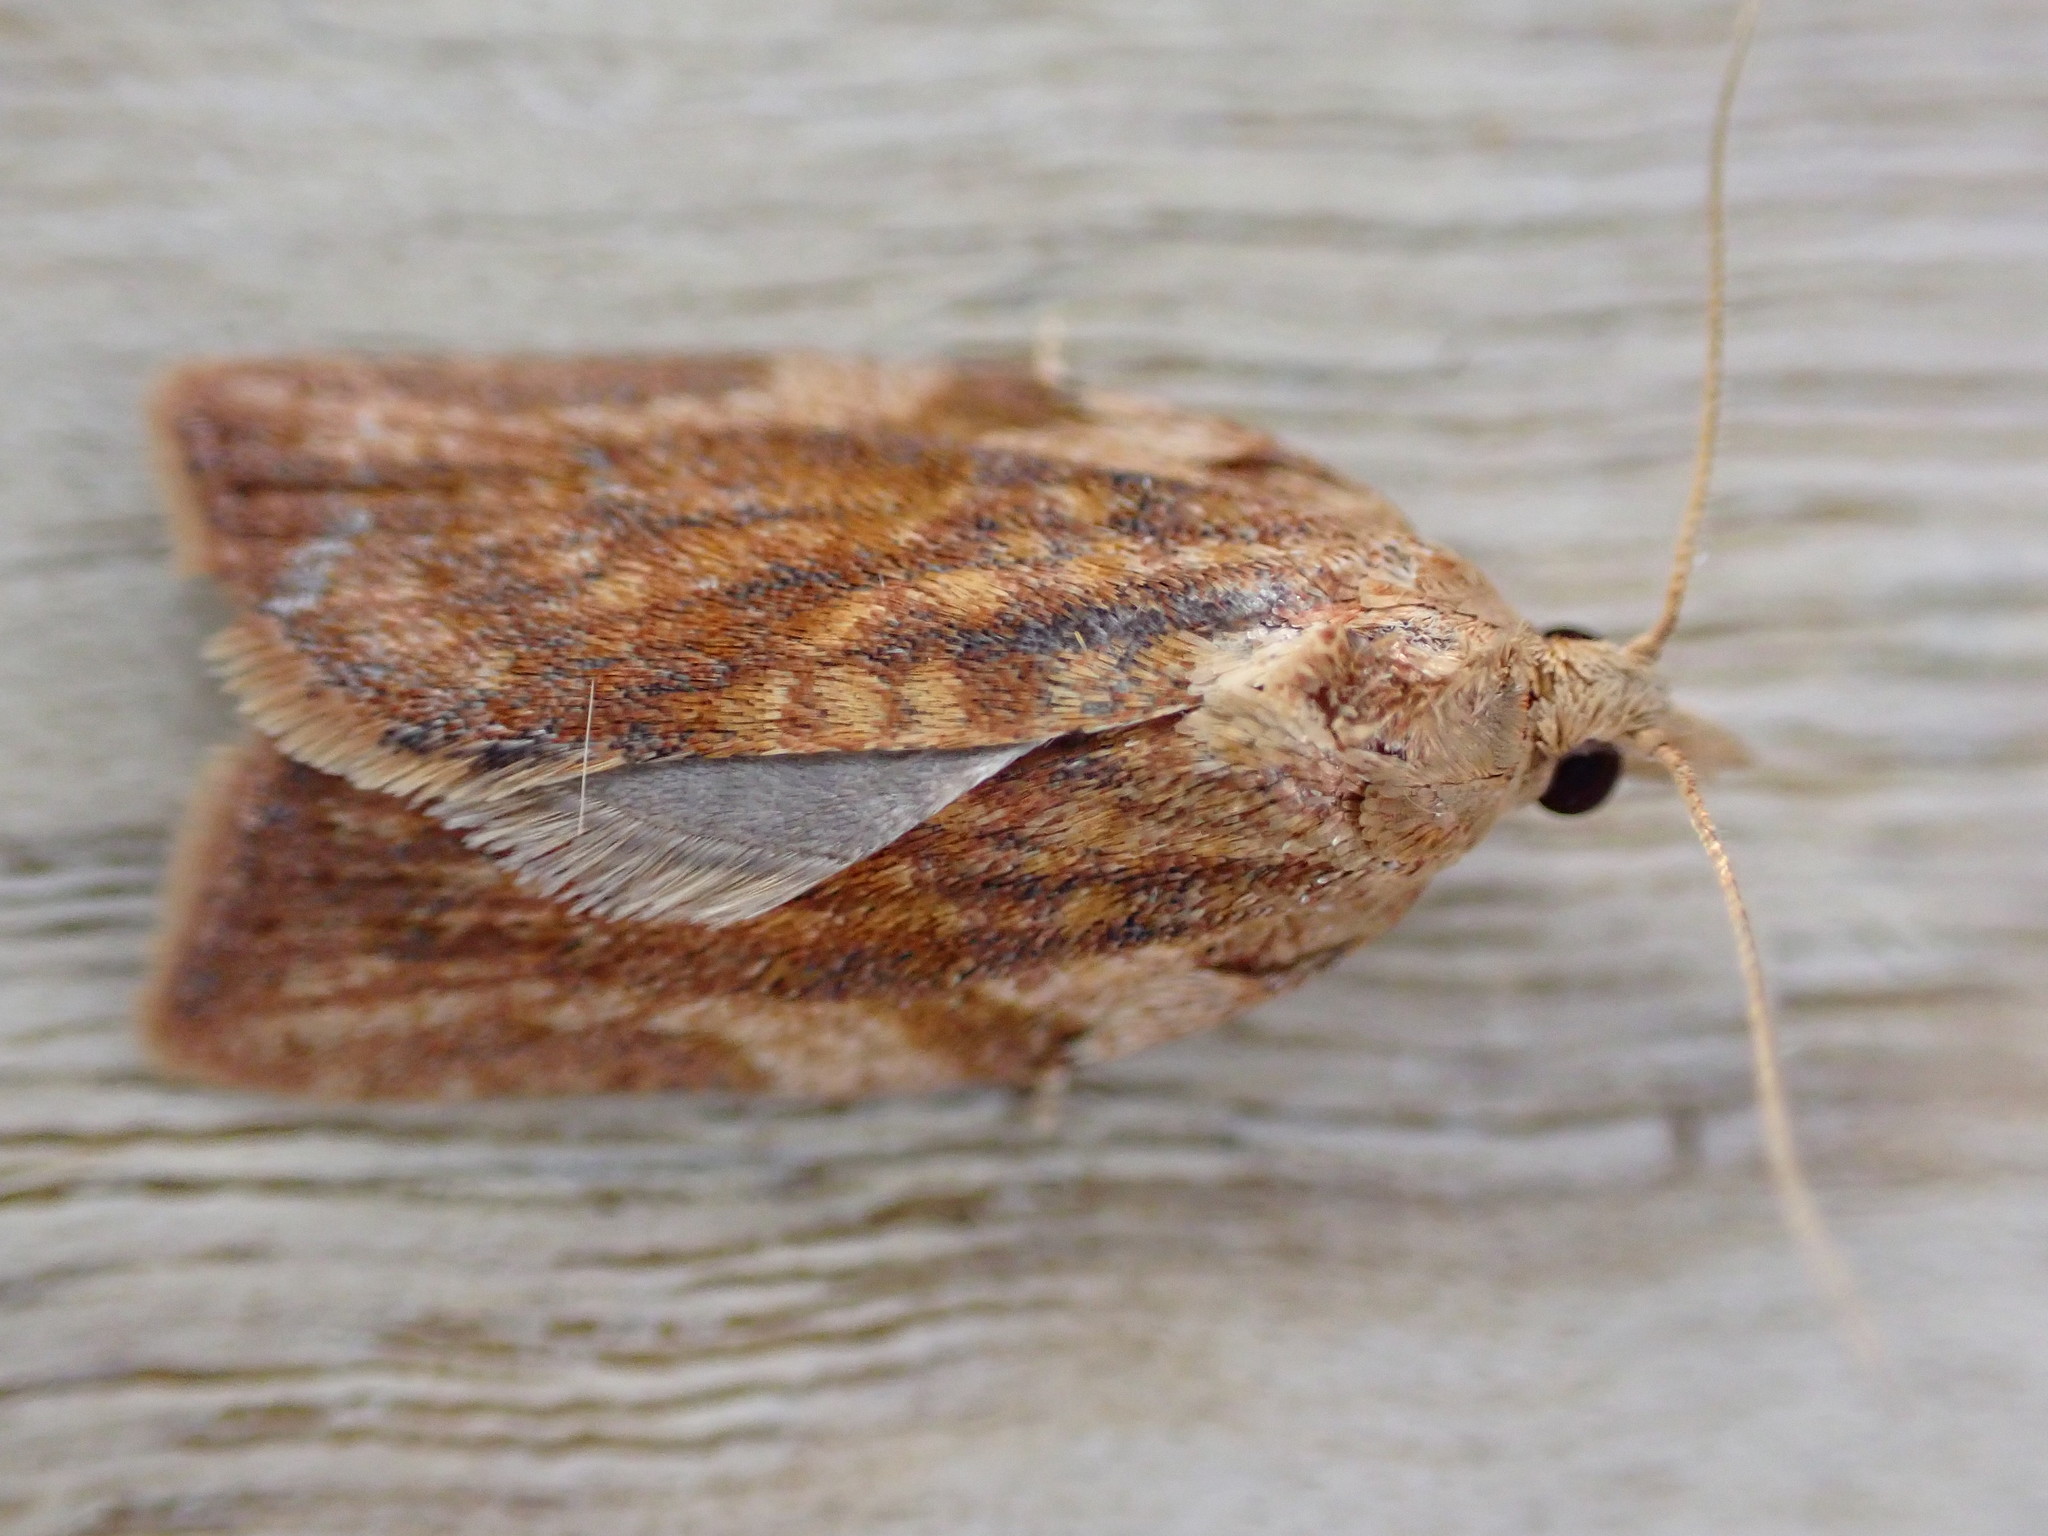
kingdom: Animalia
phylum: Arthropoda
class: Insecta
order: Lepidoptera
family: Tortricidae
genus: Epiphyas
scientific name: Epiphyas postvittana
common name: Light brown apple moth
